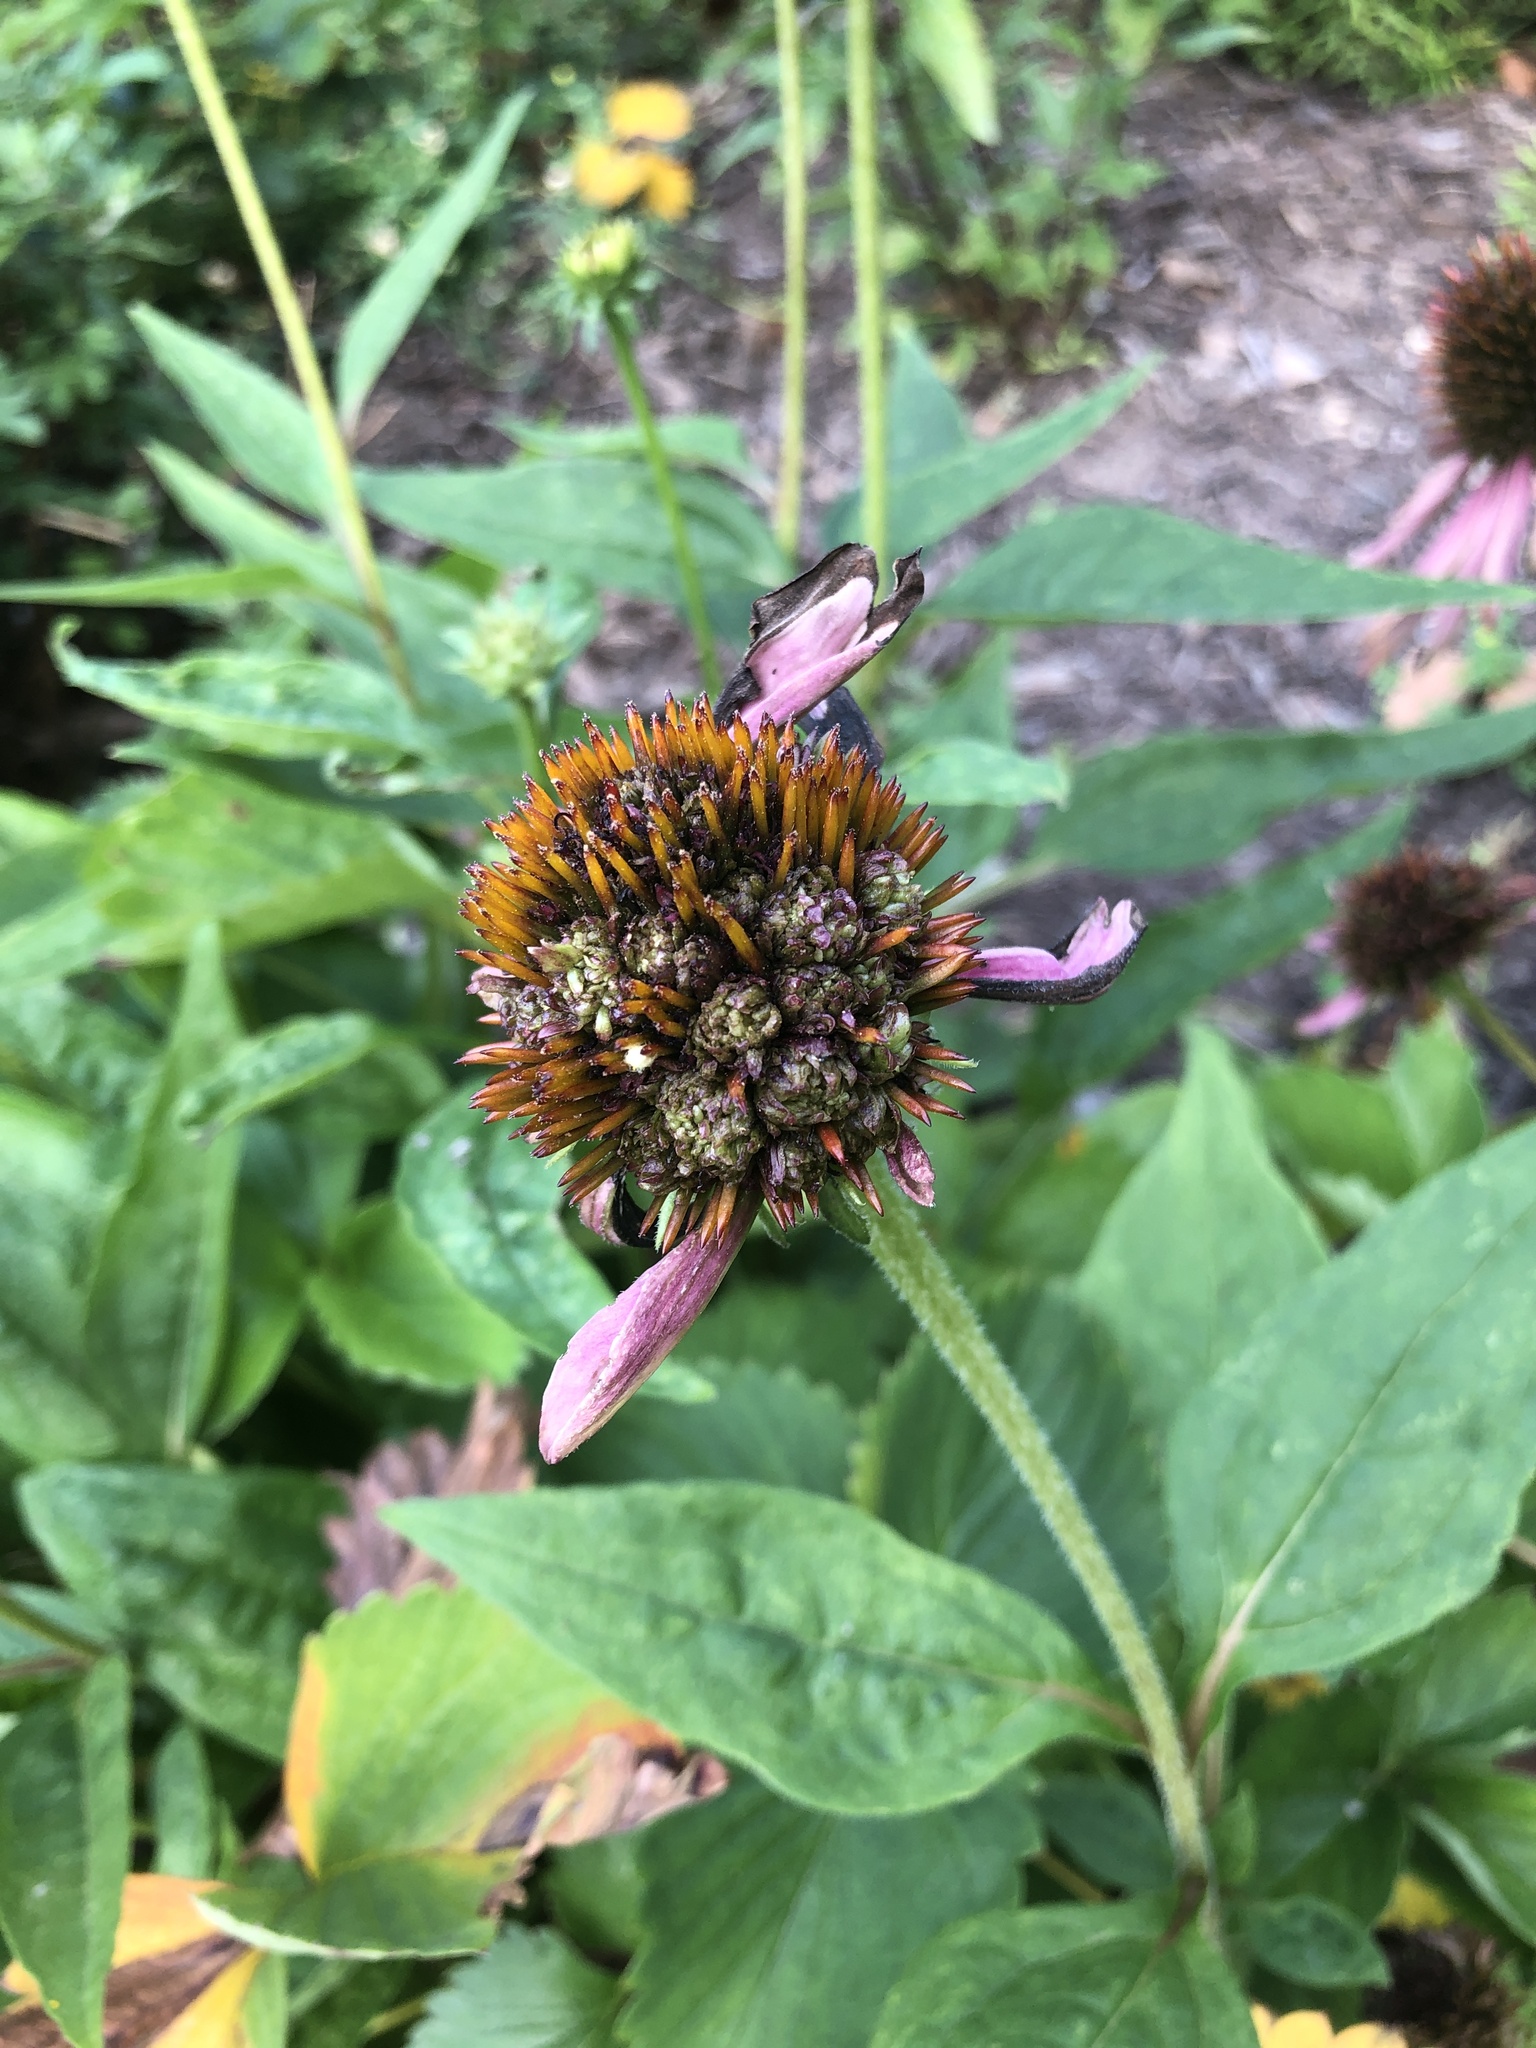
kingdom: Bacteria
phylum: Firmicutes
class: Bacilli
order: Acholeplasmatales
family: Acholeplasmataceae
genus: Phytoplasma
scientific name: Phytoplasma
